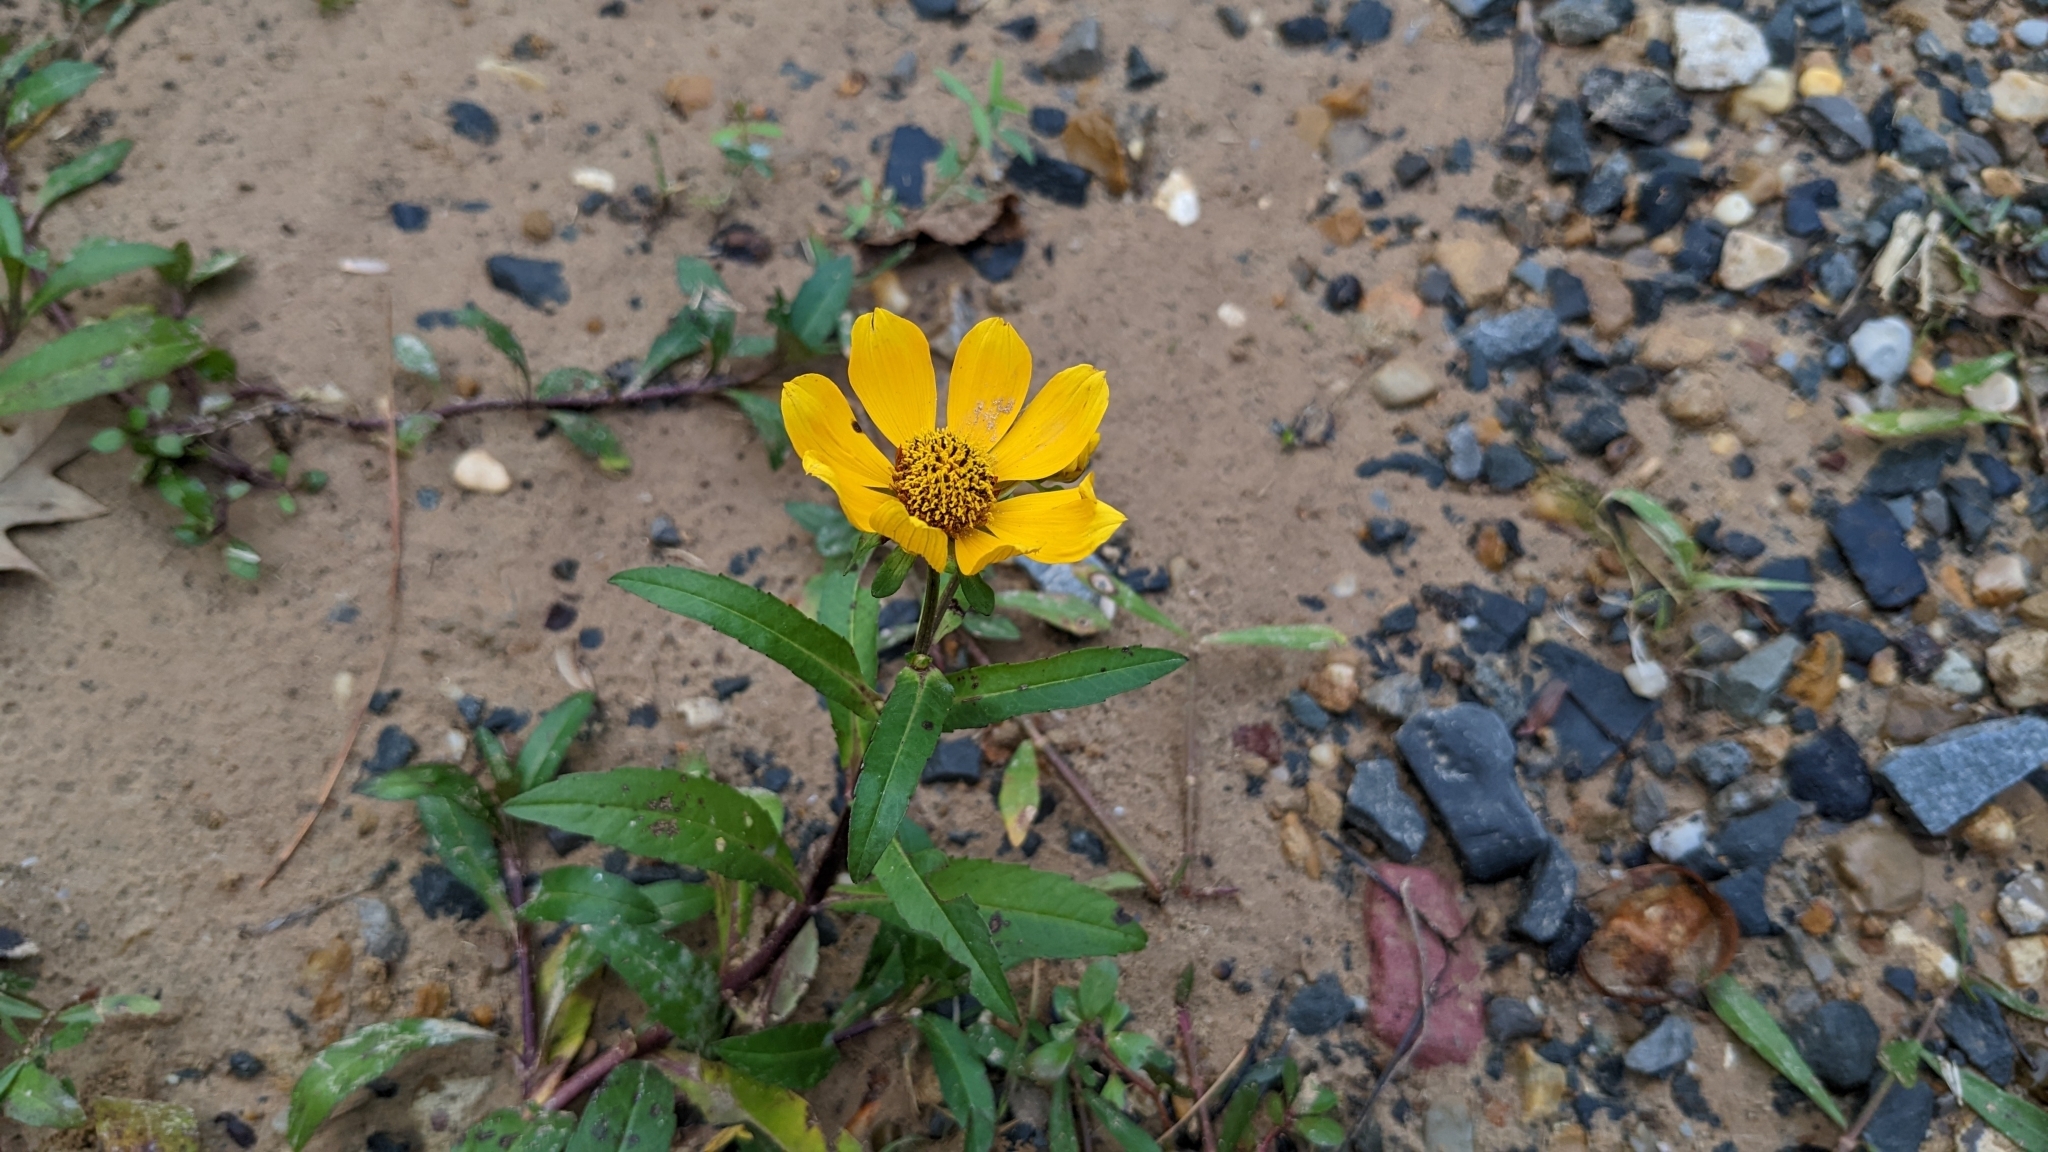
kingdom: Plantae
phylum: Tracheophyta
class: Magnoliopsida
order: Asterales
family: Asteraceae
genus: Bidens
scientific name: Bidens laevis
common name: Larger bur-marigold
